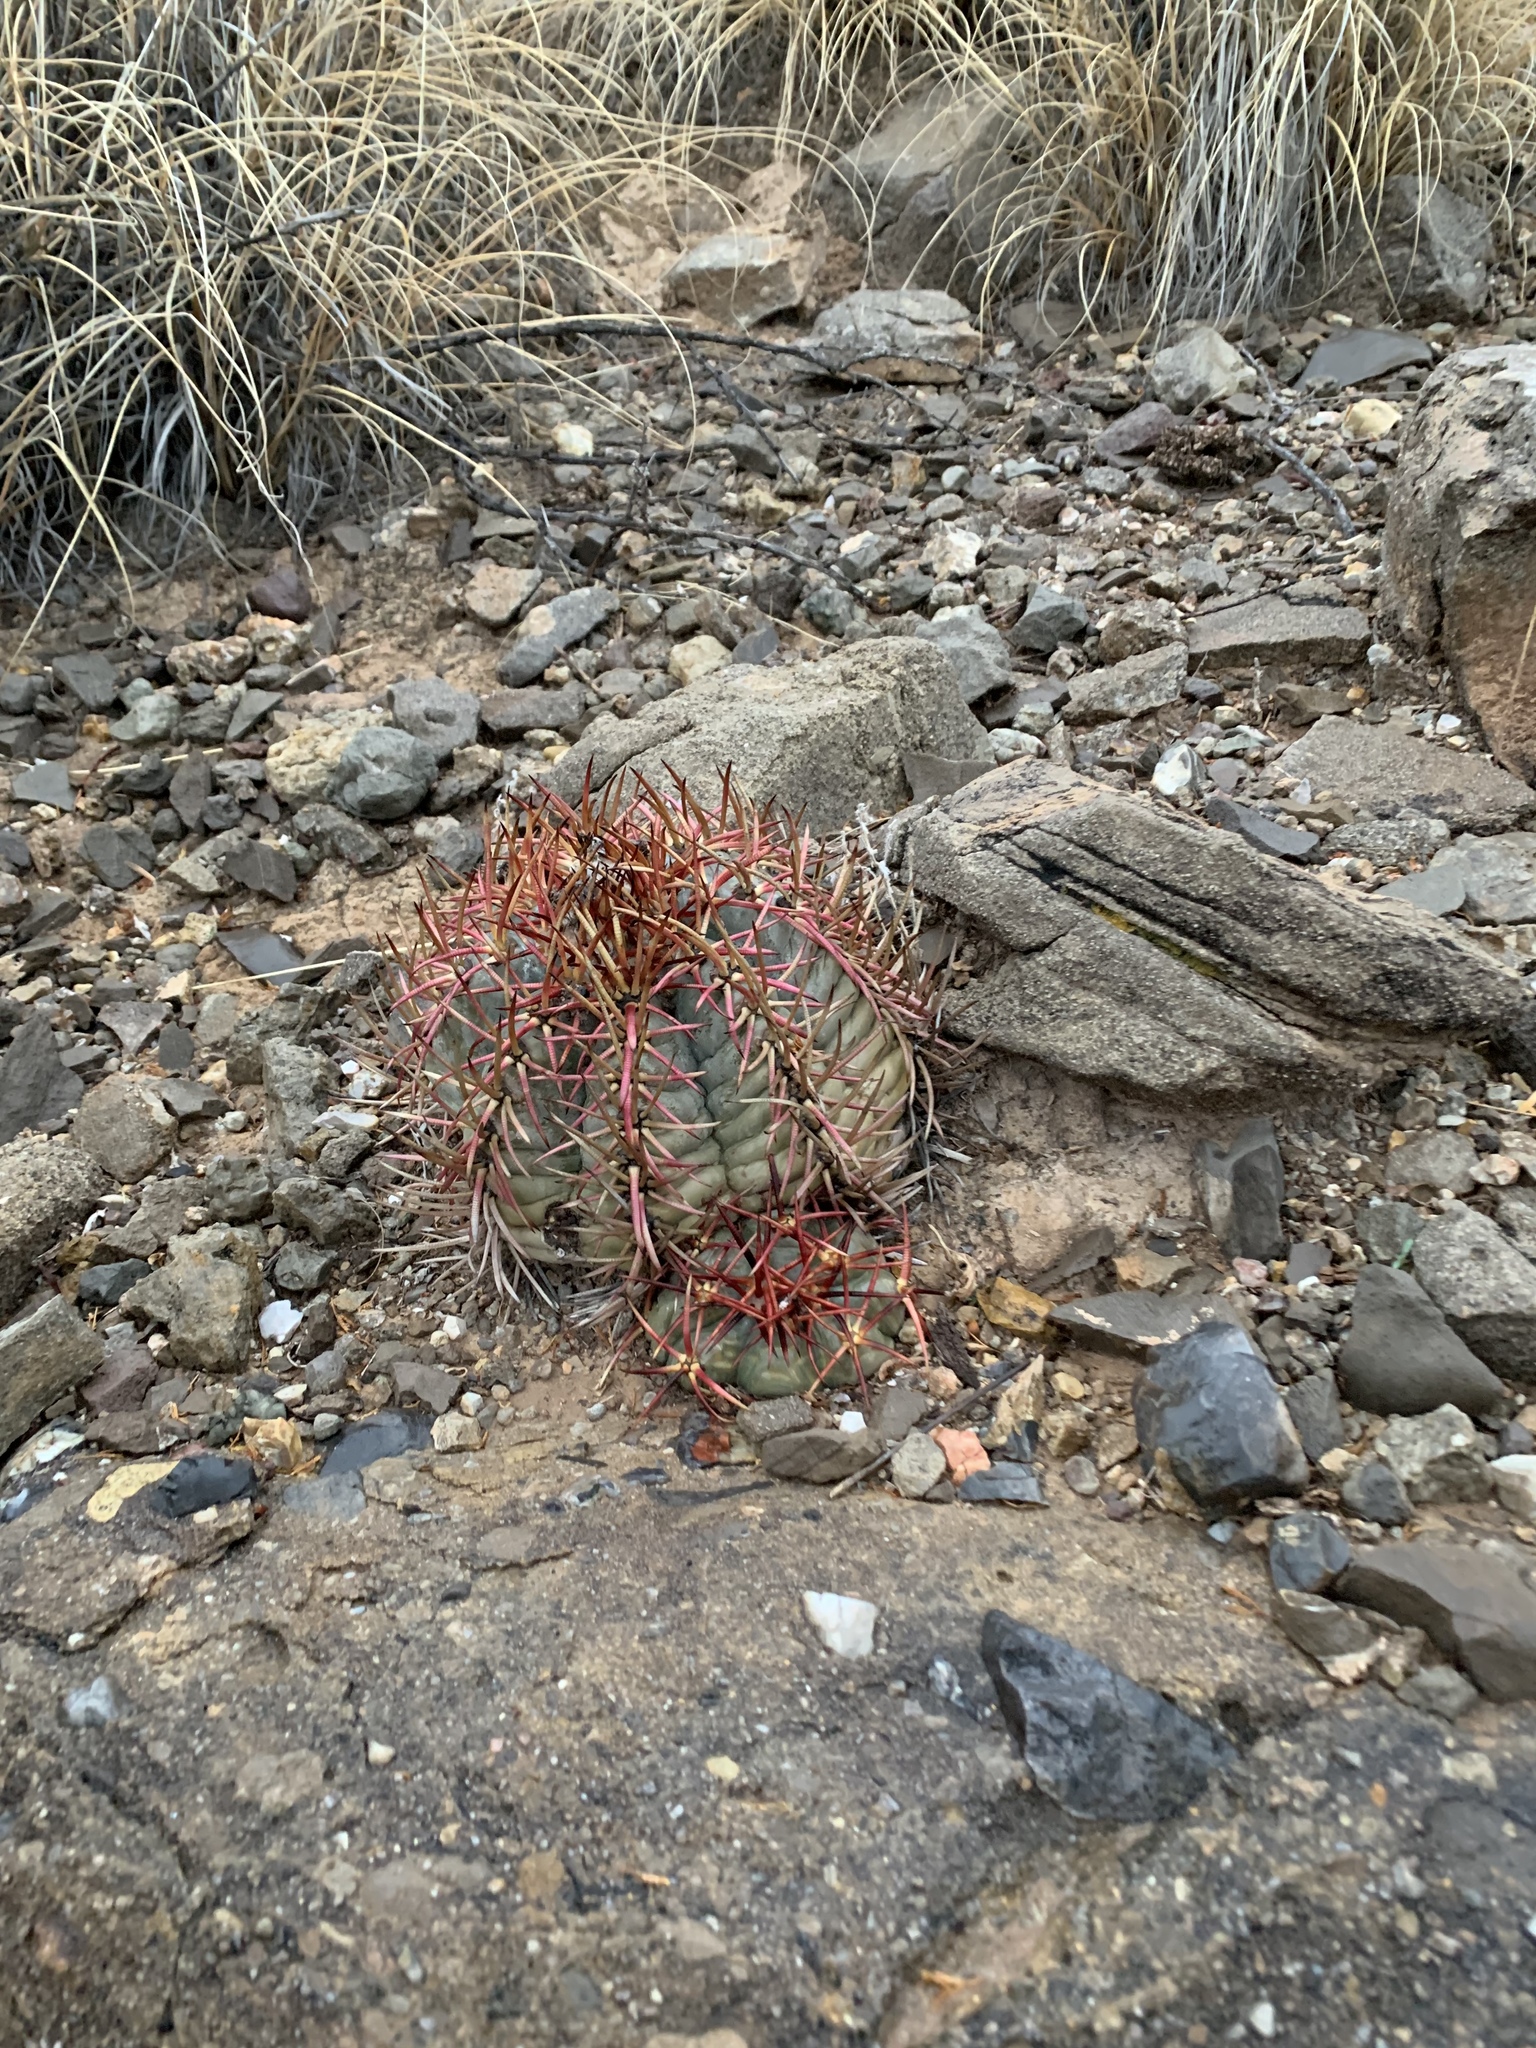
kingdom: Plantae
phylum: Tracheophyta
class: Magnoliopsida
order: Caryophyllales
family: Cactaceae
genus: Echinocactus
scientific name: Echinocactus horizonthalonius
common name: Devilshead
